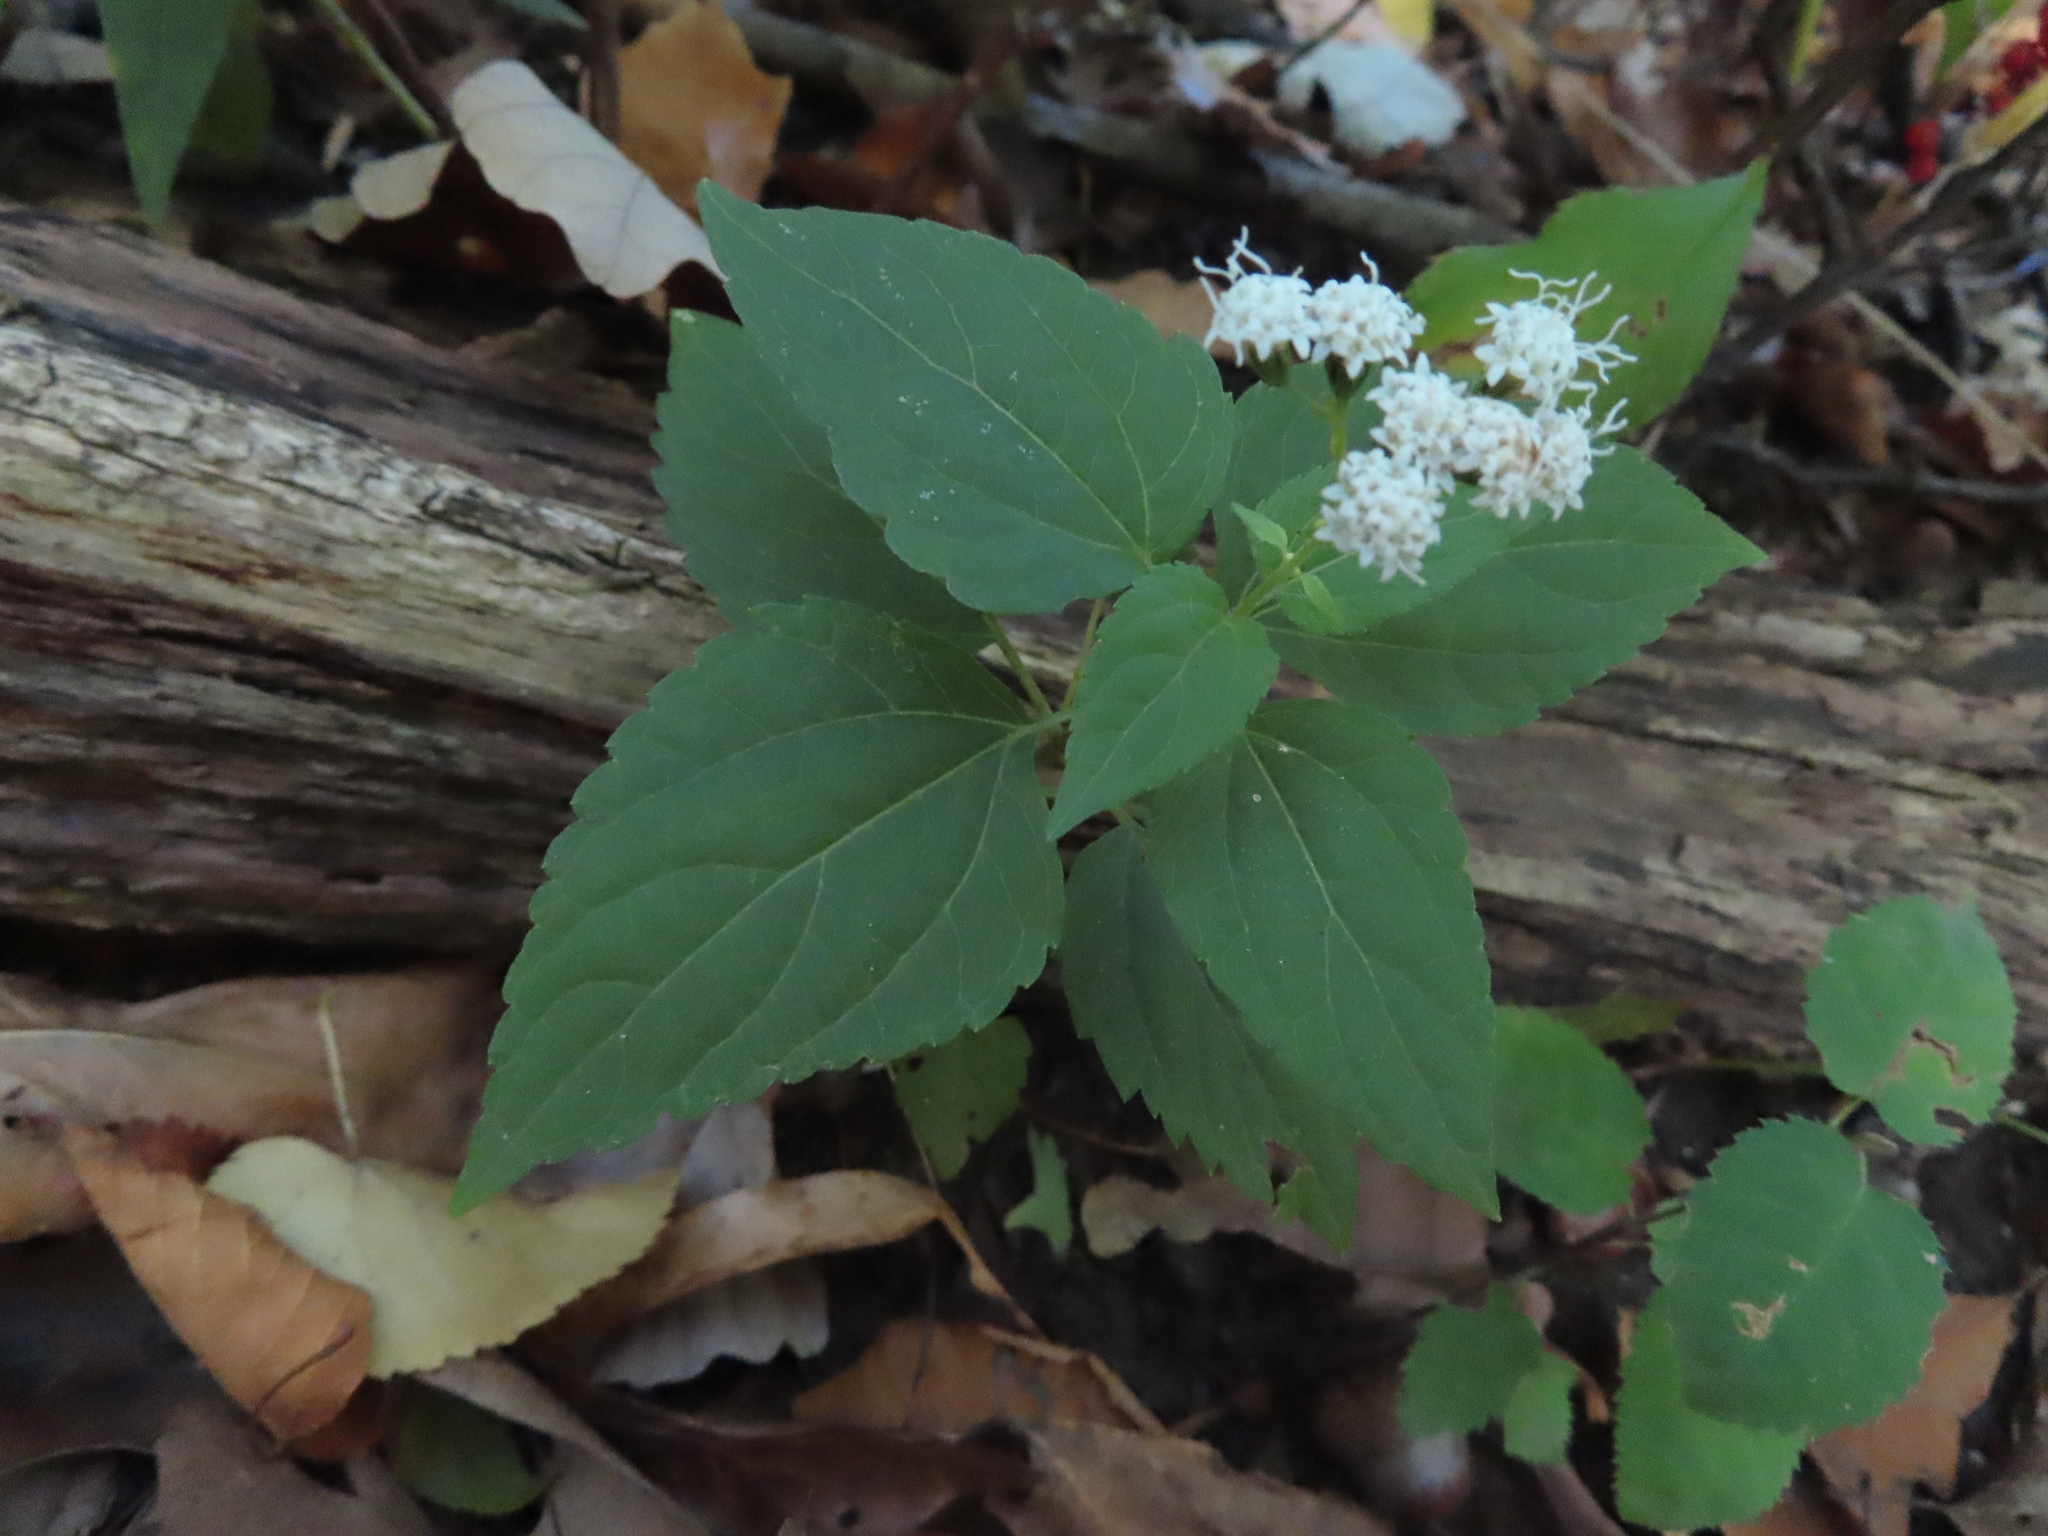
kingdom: Plantae
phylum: Tracheophyta
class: Magnoliopsida
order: Asterales
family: Asteraceae
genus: Ageratina
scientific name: Ageratina altissima
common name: White snakeroot
